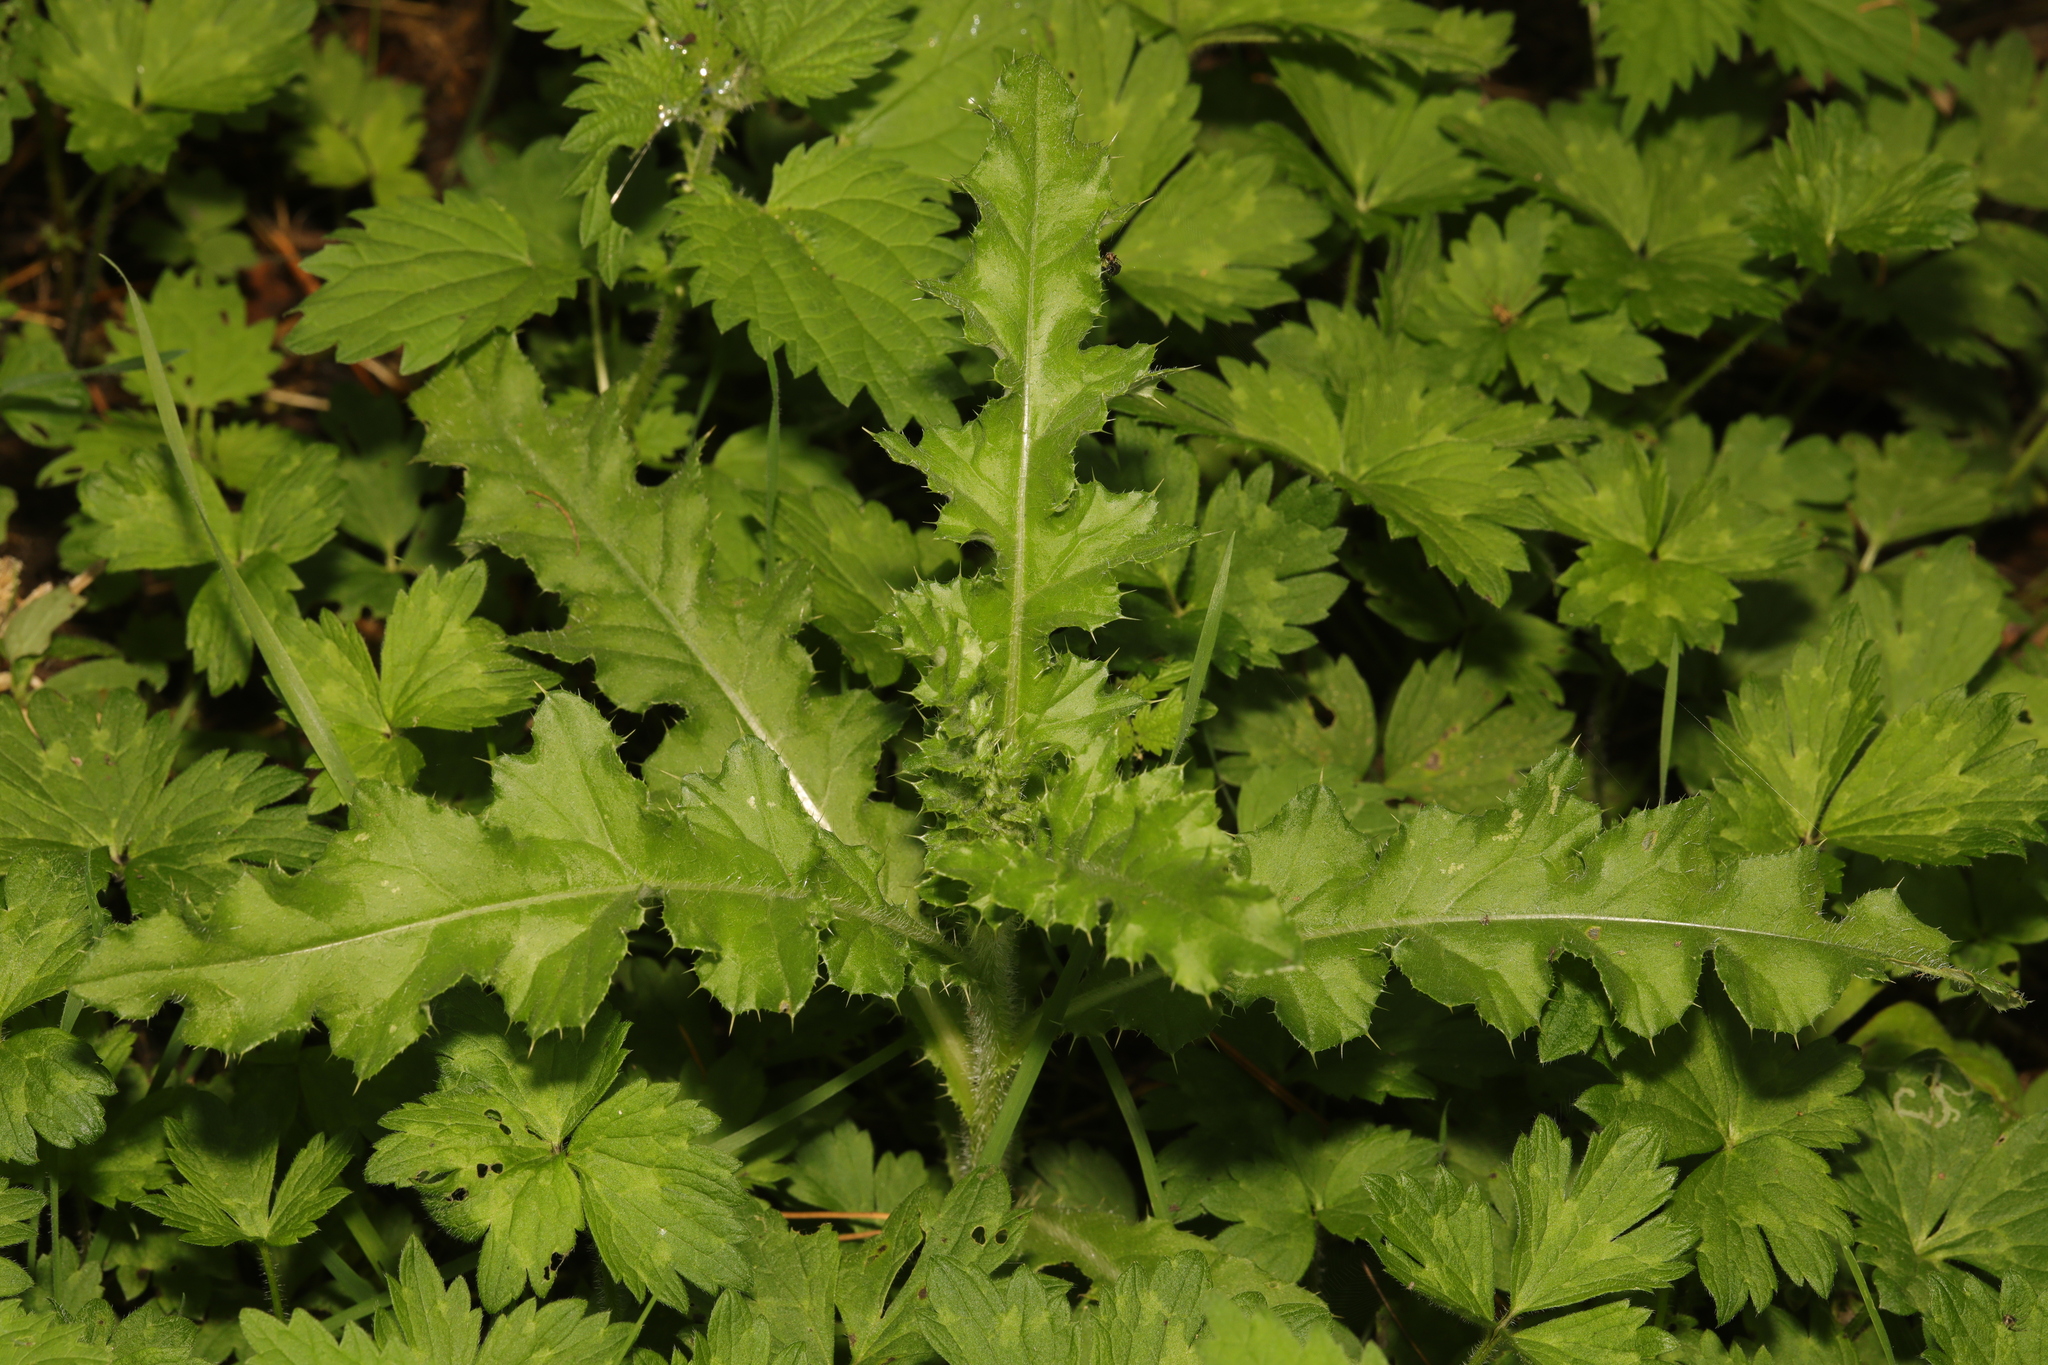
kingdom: Plantae
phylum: Tracheophyta
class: Magnoliopsida
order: Asterales
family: Asteraceae
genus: Cirsium
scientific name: Cirsium arvense
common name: Creeping thistle
